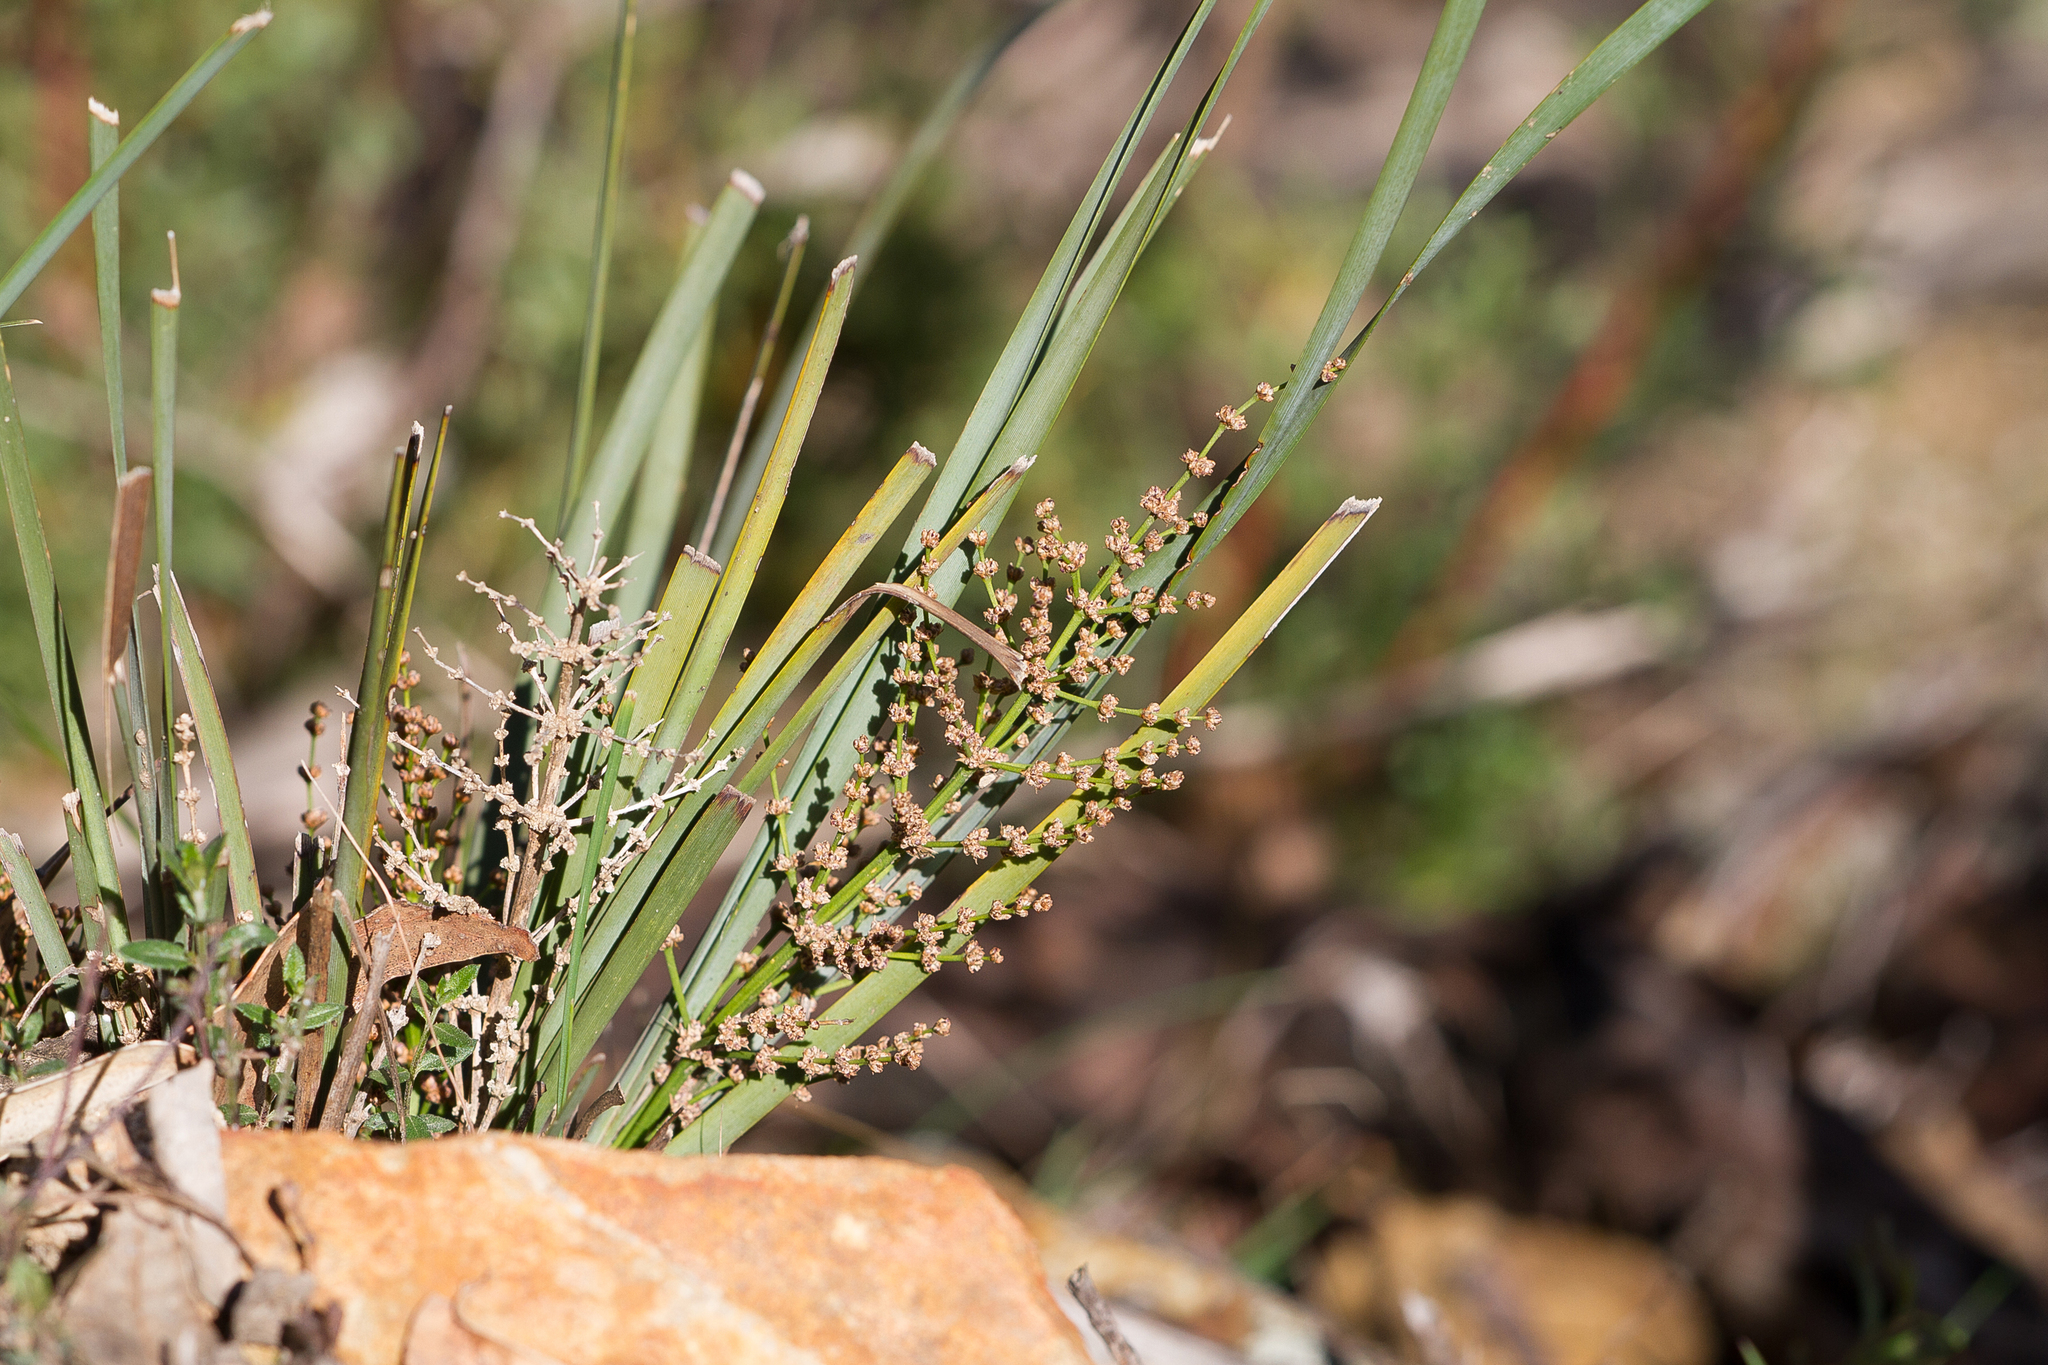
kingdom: Plantae
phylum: Tracheophyta
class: Liliopsida
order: Asparagales
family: Asparagaceae
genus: Lomandra
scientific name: Lomandra multiflora
